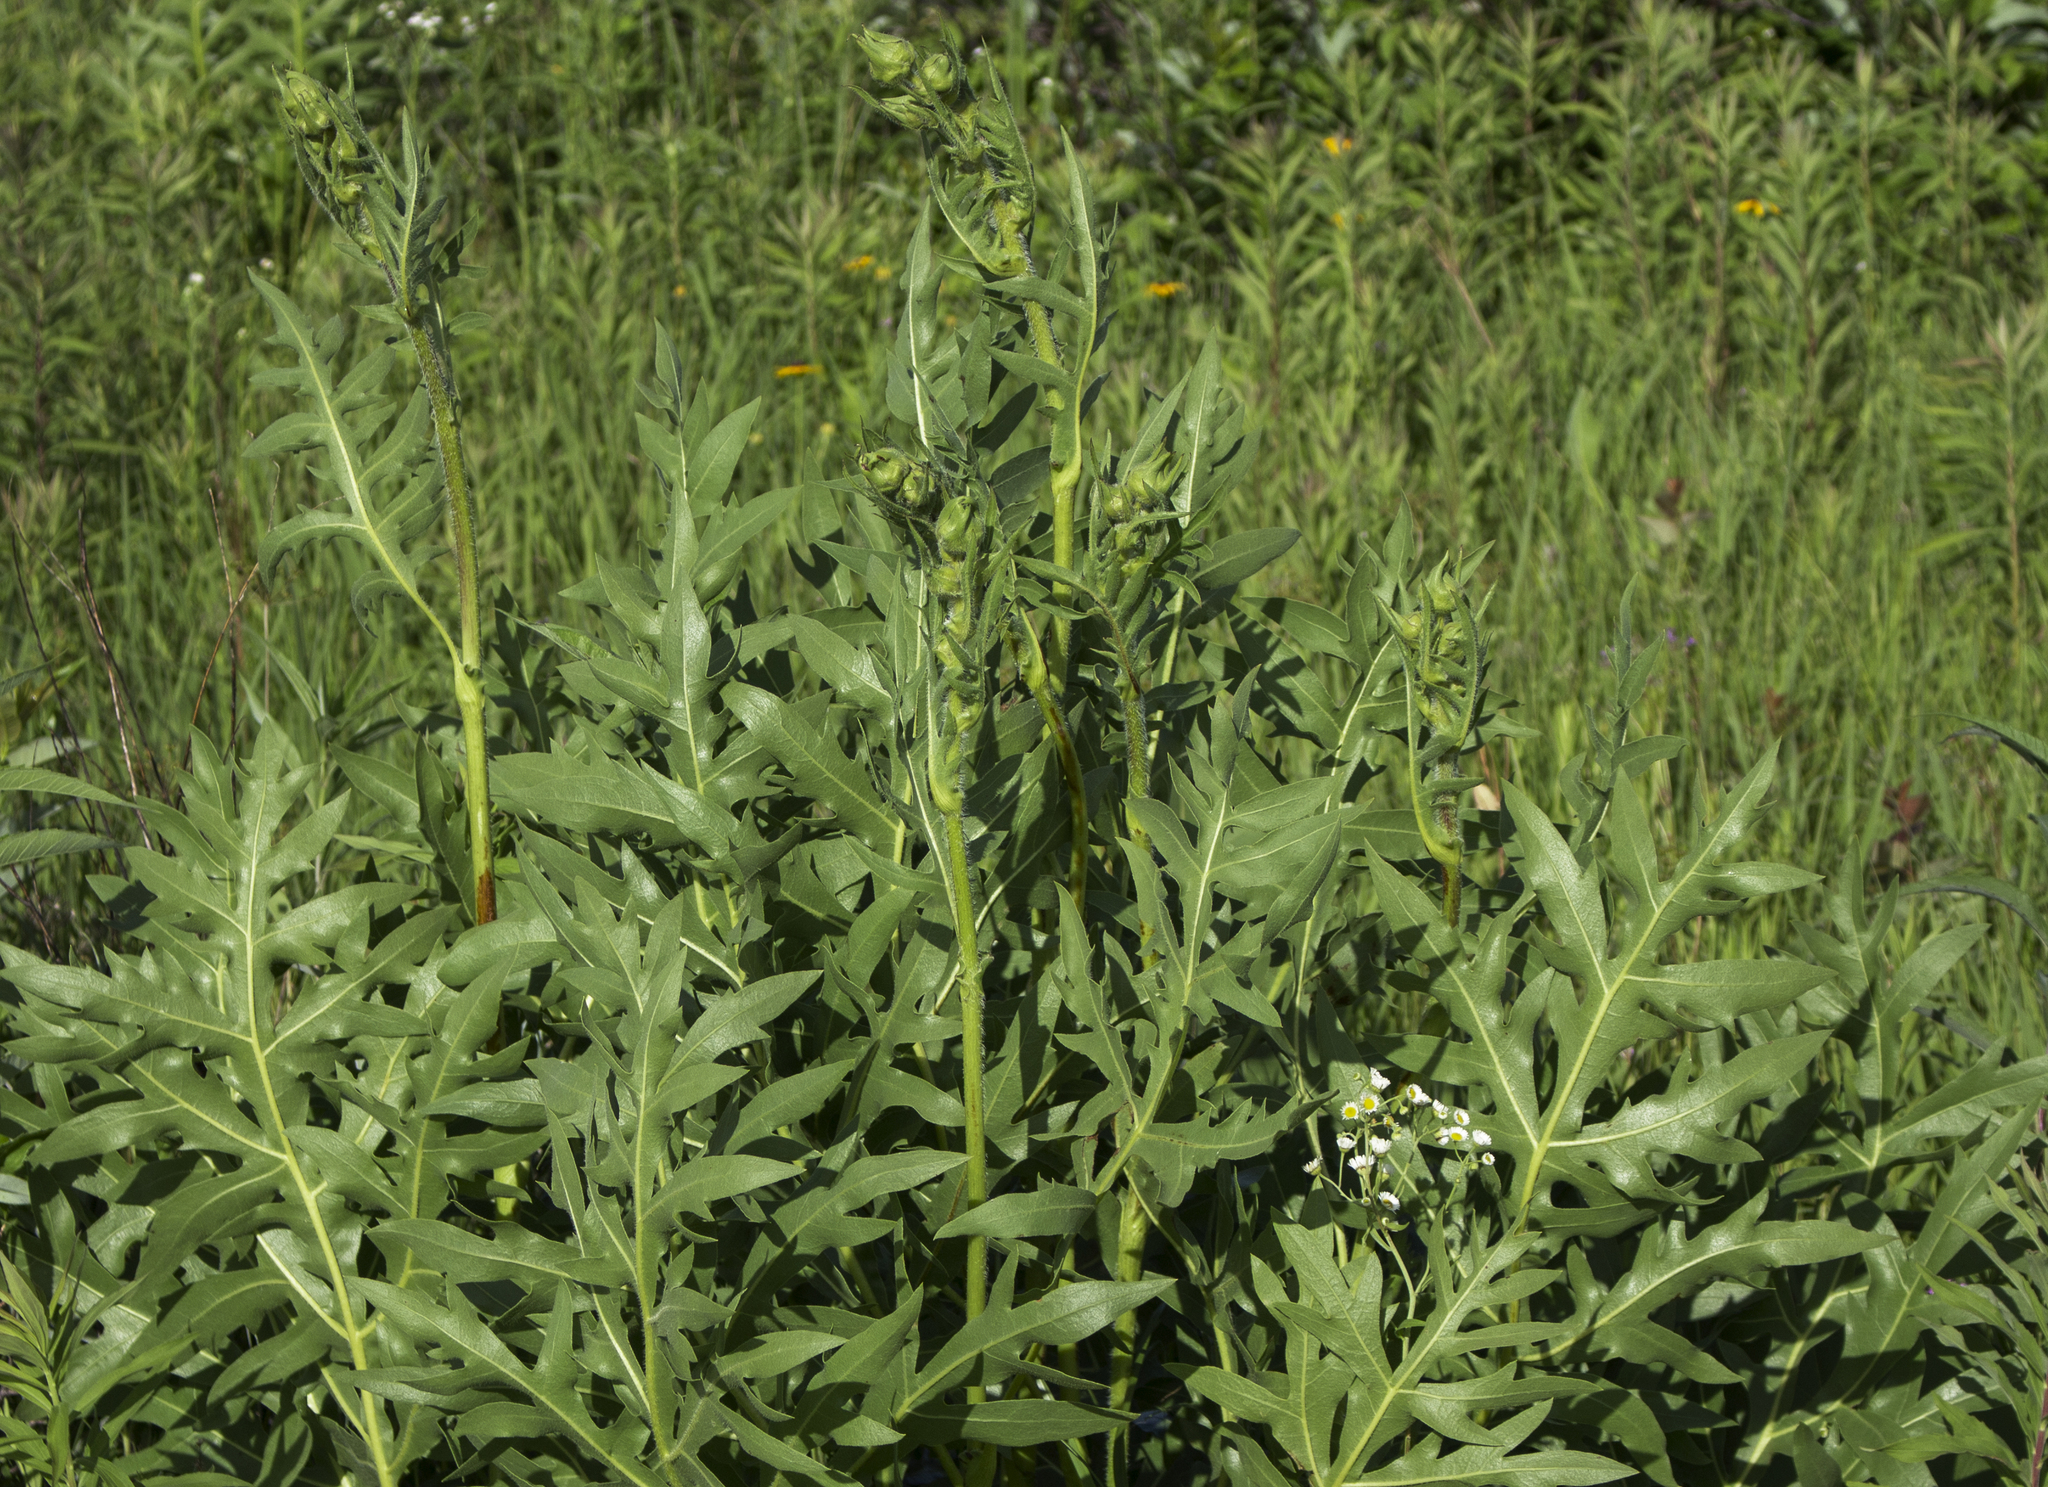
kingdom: Plantae
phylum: Tracheophyta
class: Magnoliopsida
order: Asterales
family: Asteraceae
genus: Silphium
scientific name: Silphium laciniatum
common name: Polarplant
